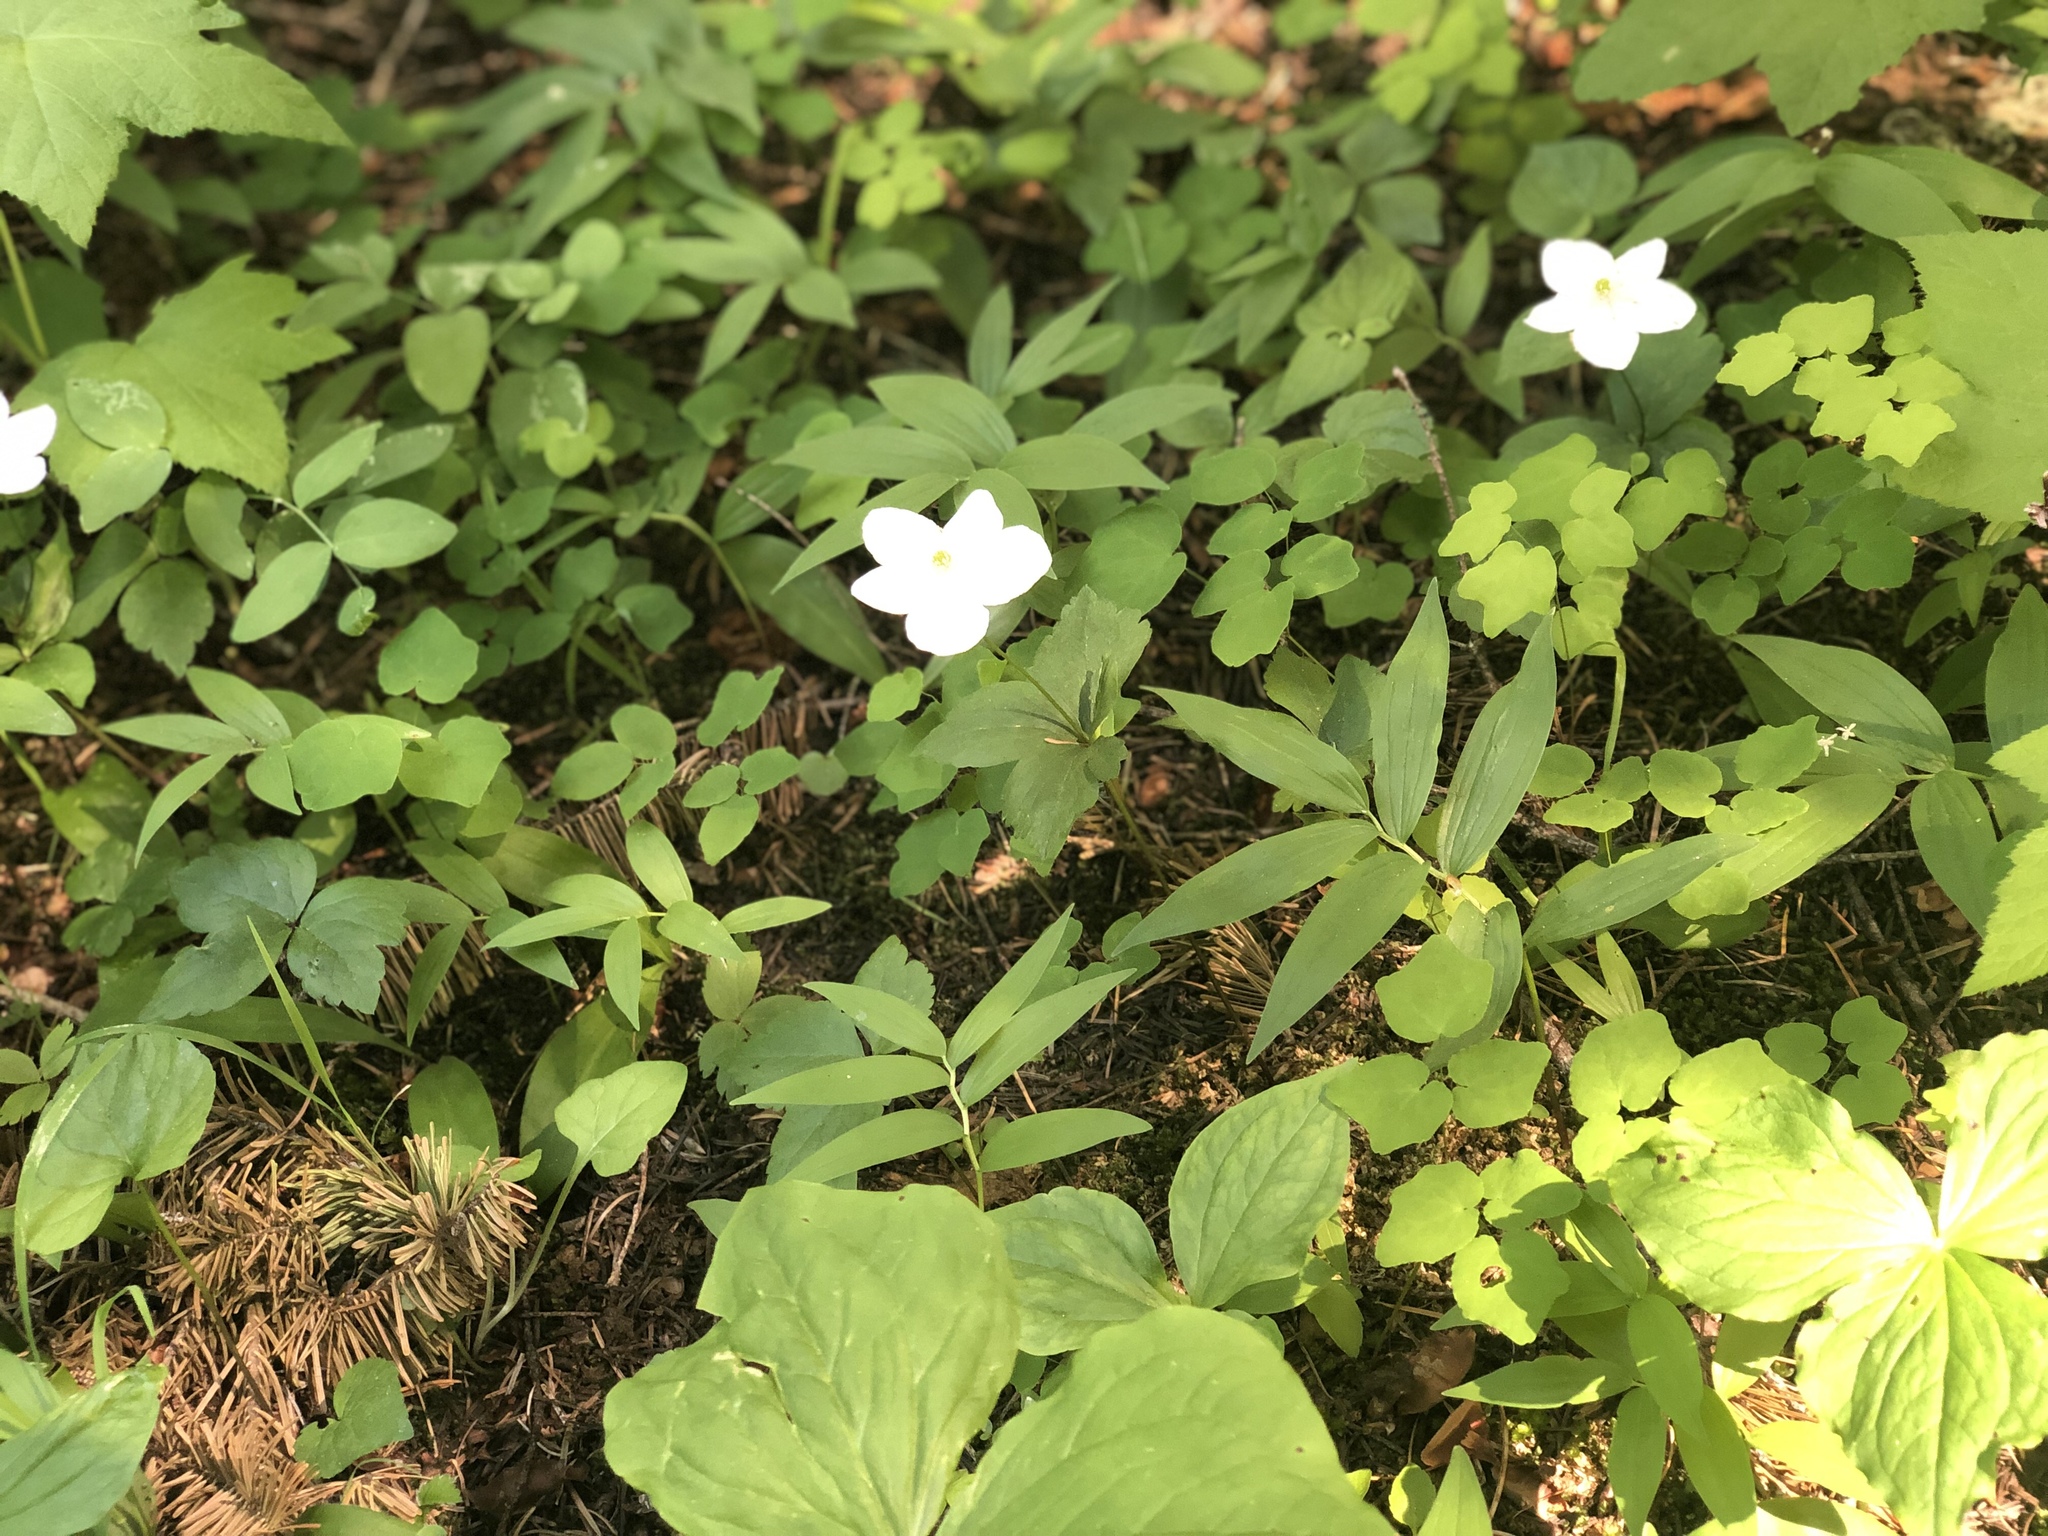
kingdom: Plantae
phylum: Tracheophyta
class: Magnoliopsida
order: Ranunculales
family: Ranunculaceae
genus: Anemonastrum
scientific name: Anemonastrum deltoideum
